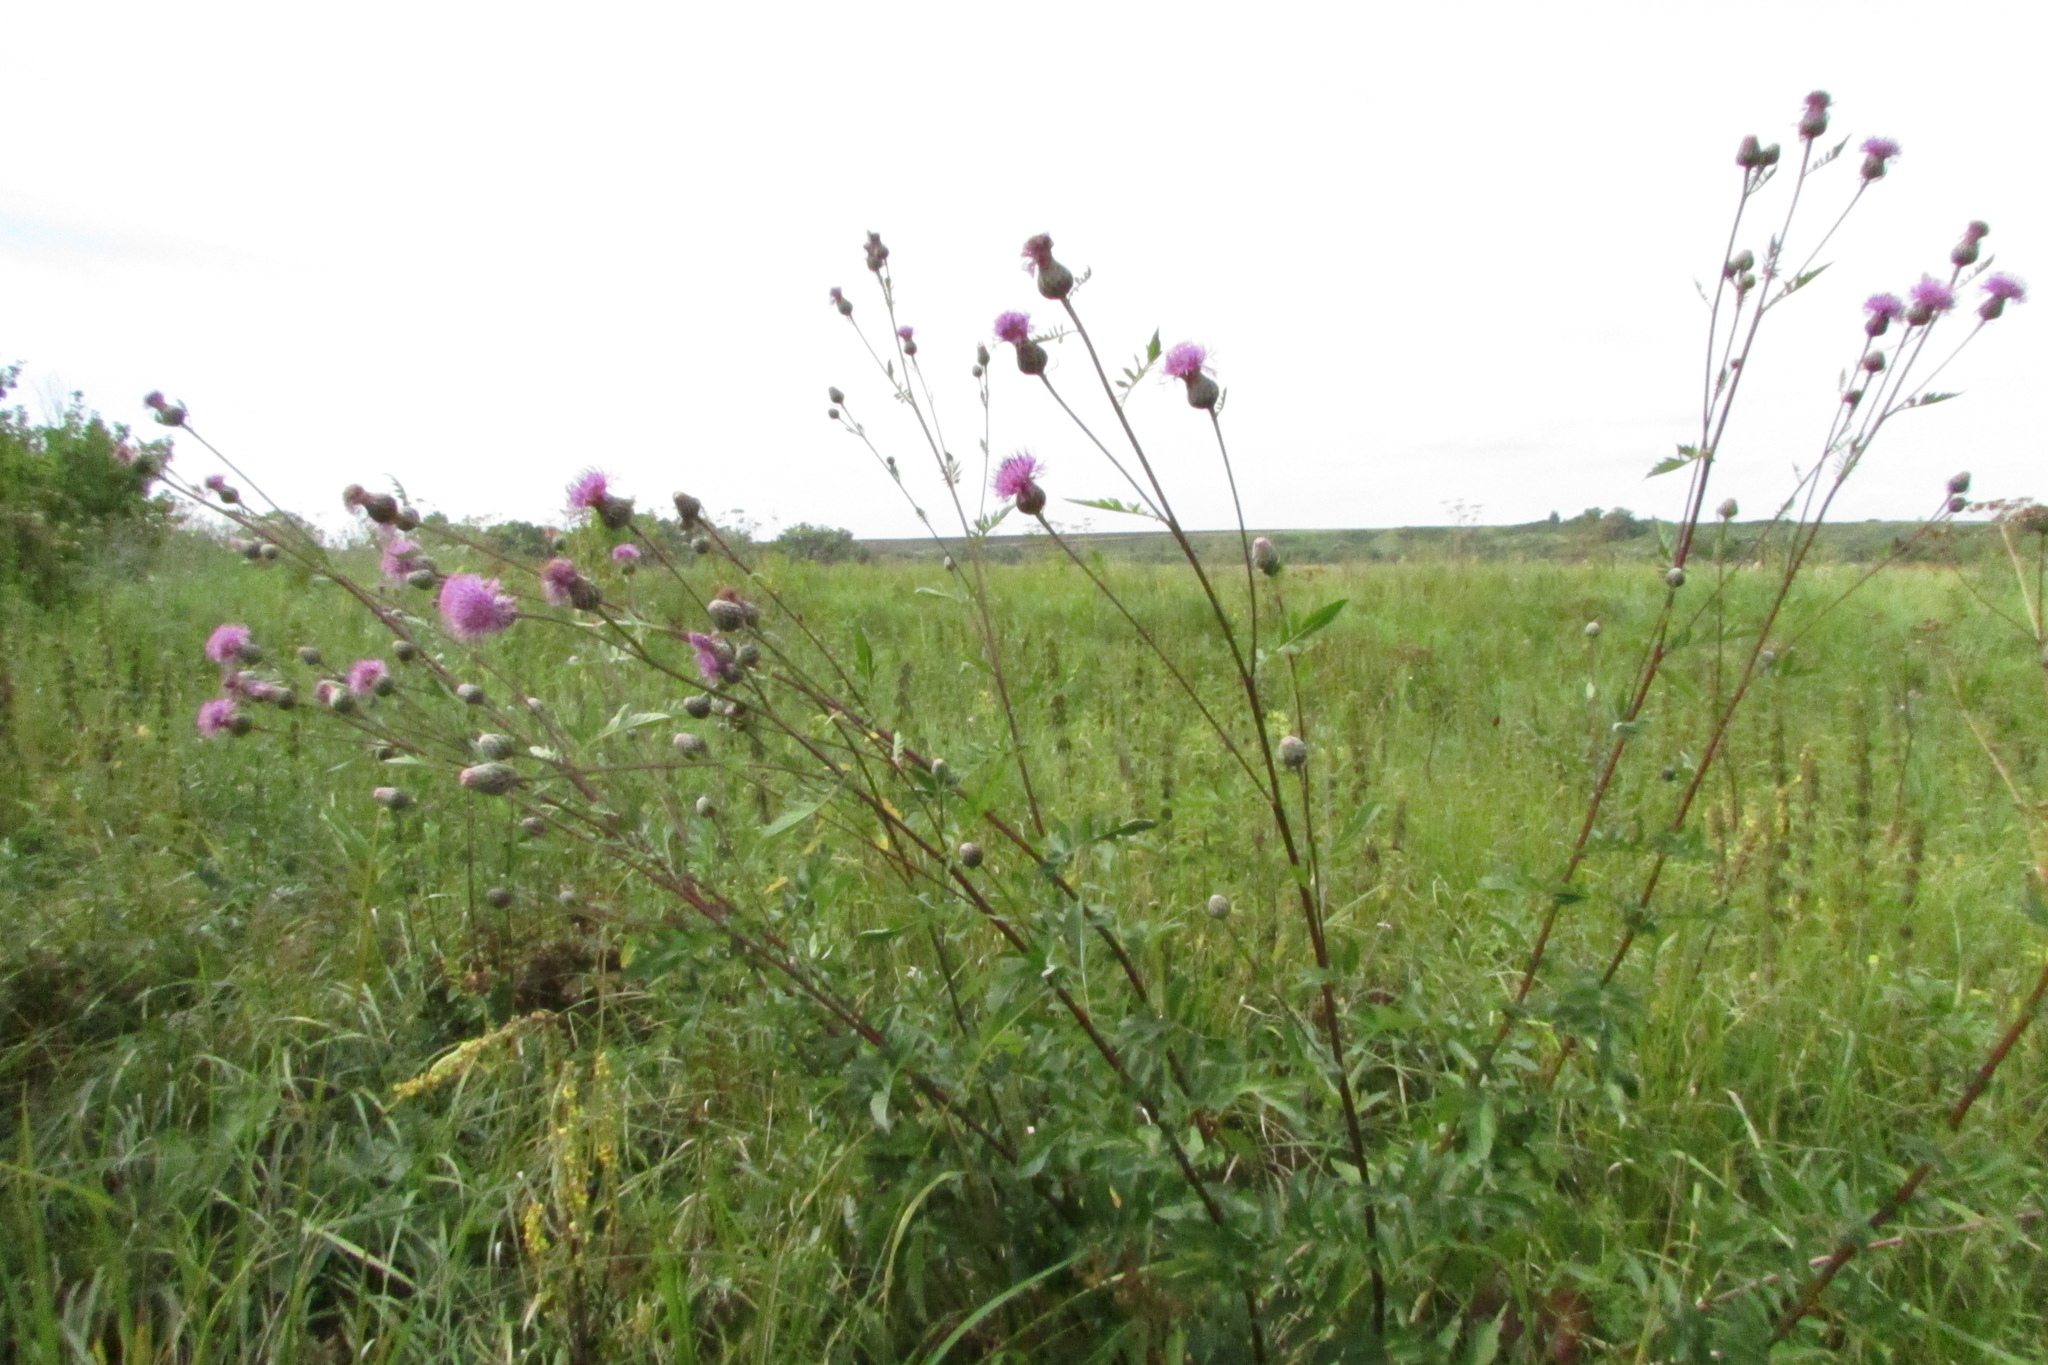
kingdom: Plantae
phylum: Tracheophyta
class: Magnoliopsida
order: Asterales
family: Asteraceae
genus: Serratula
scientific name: Serratula coronata
